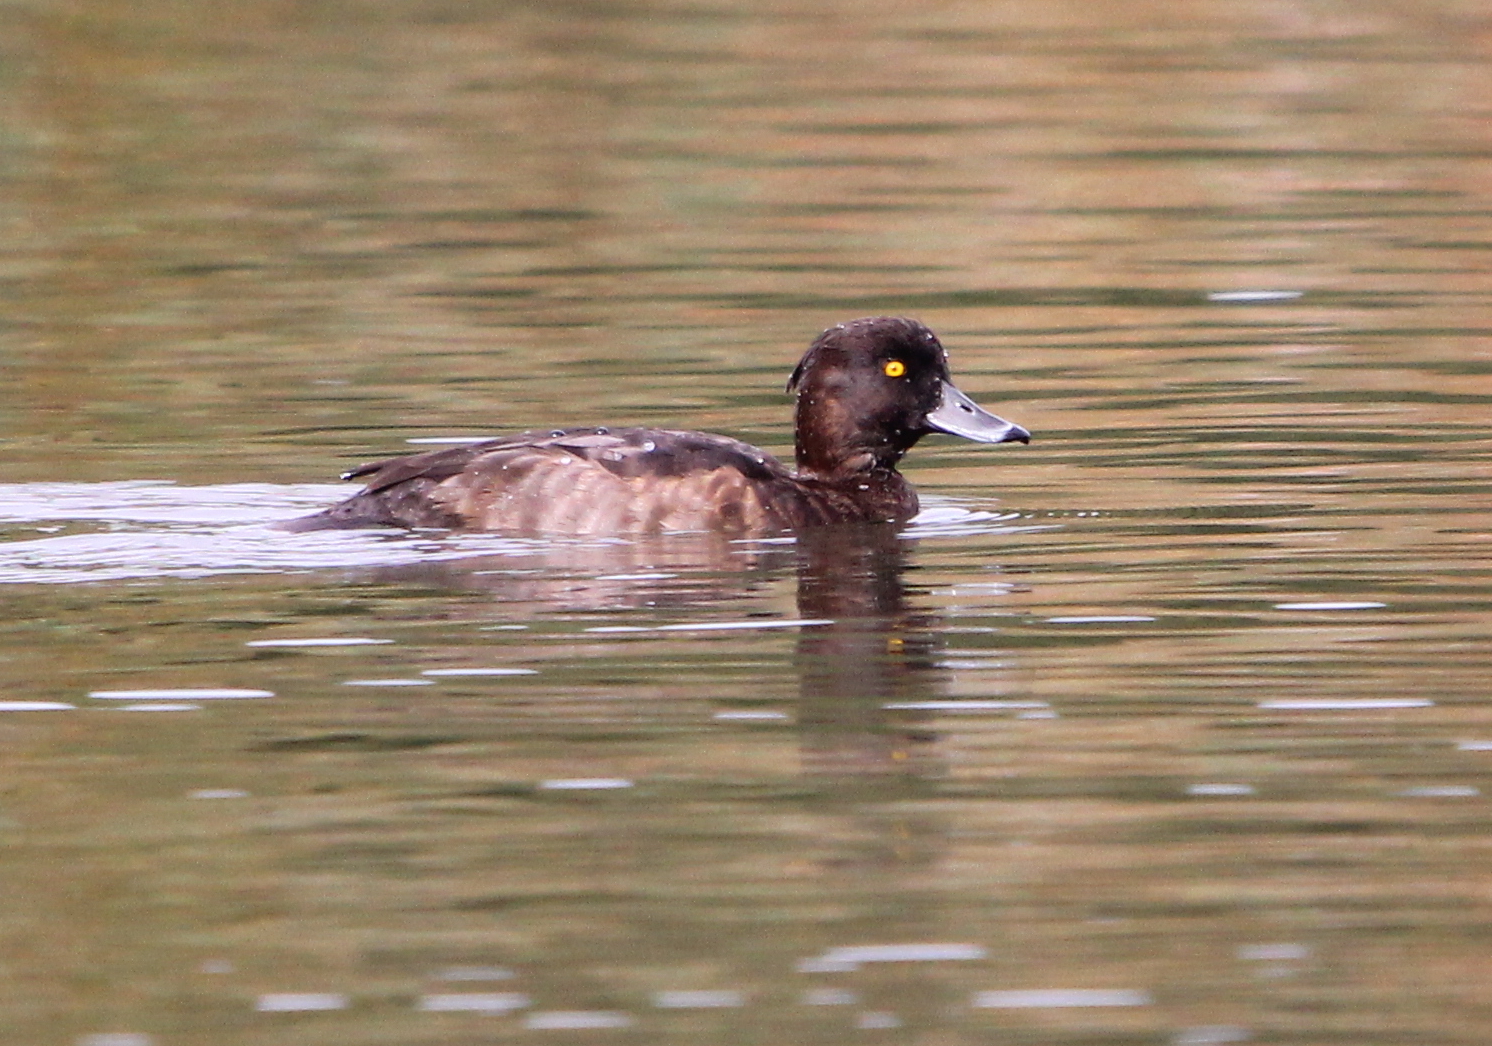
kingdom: Animalia
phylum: Chordata
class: Aves
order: Anseriformes
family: Anatidae
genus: Aythya
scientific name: Aythya fuligula
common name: Tufted duck
